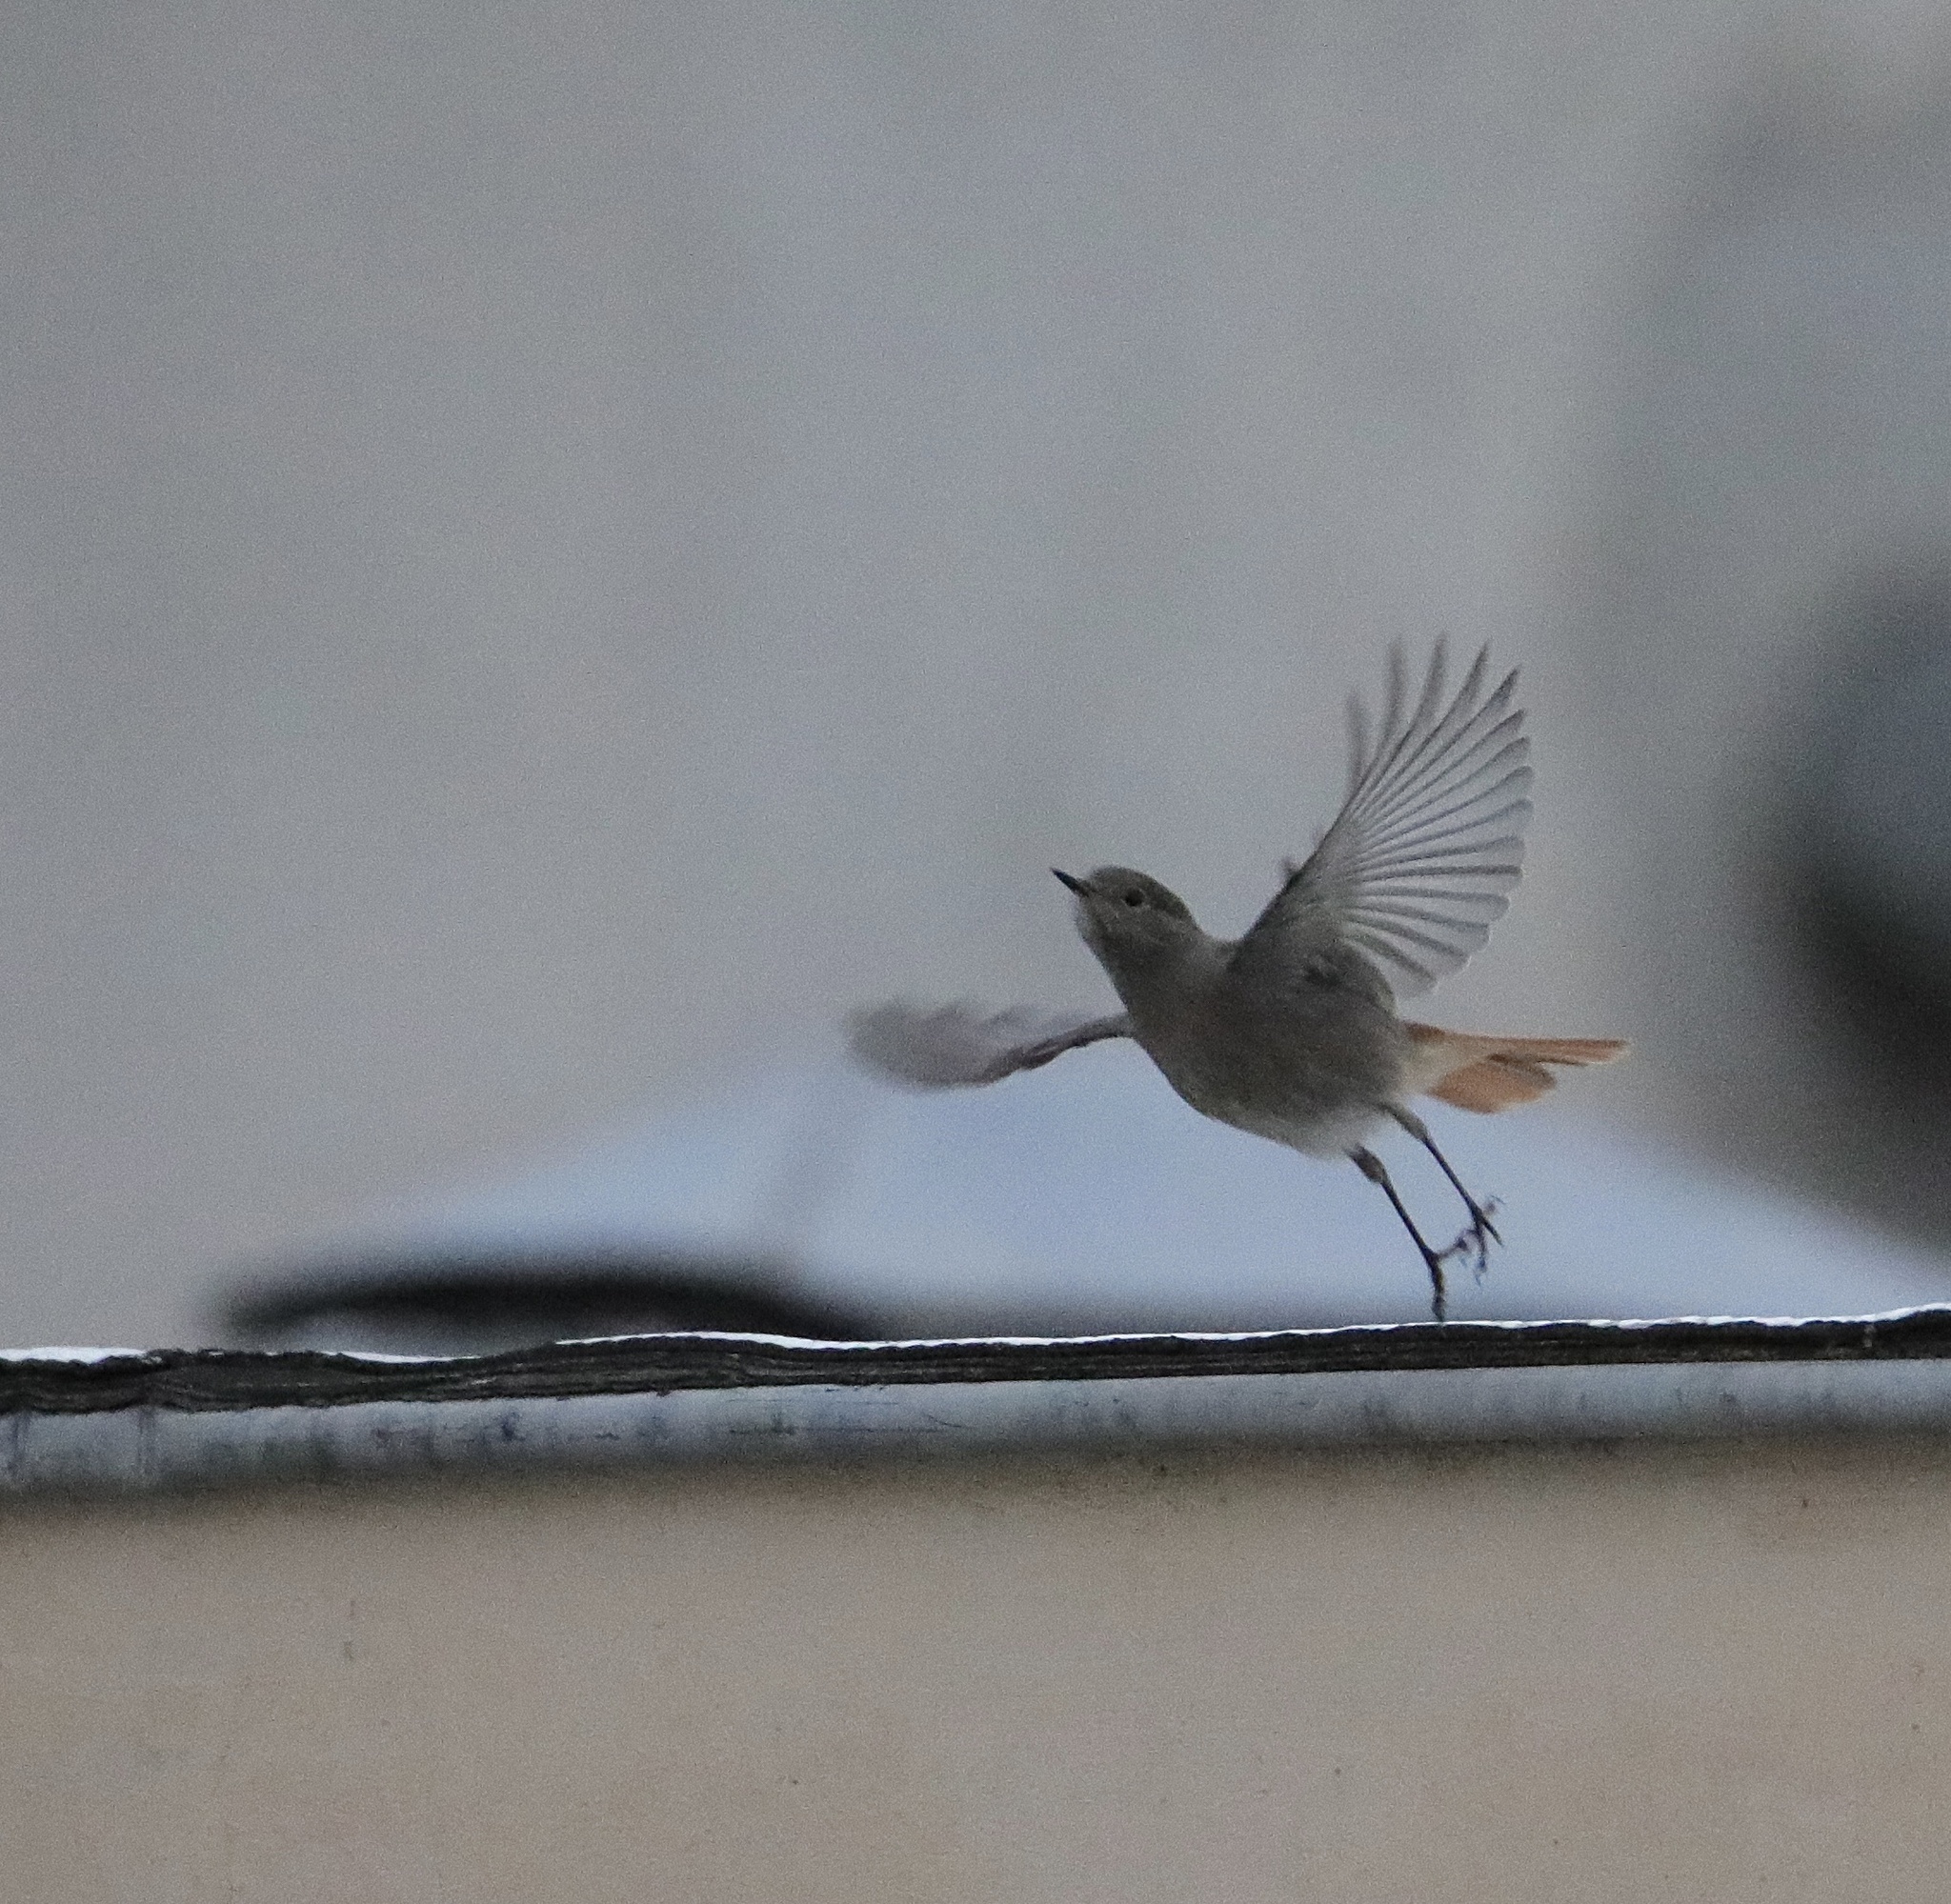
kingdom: Animalia
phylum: Chordata
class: Aves
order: Passeriformes
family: Muscicapidae
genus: Phoenicurus
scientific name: Phoenicurus ochruros
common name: Black redstart
